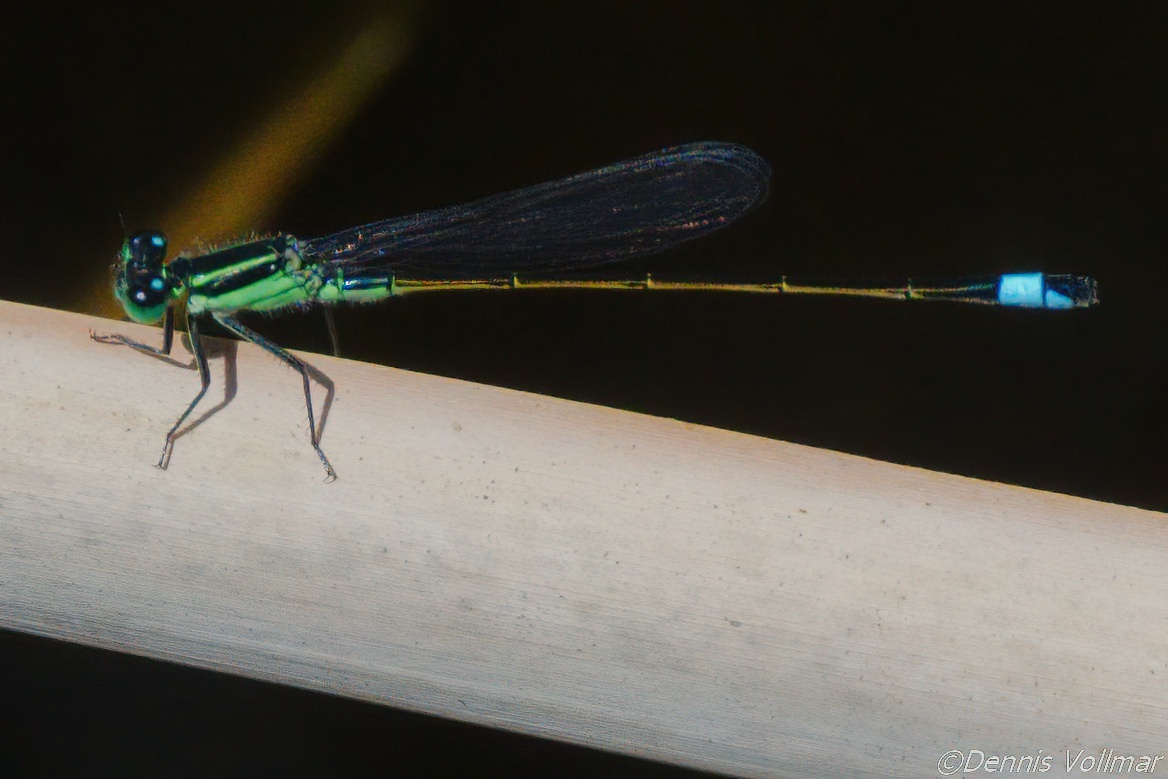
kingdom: Animalia
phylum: Arthropoda
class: Insecta
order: Odonata
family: Coenagrionidae
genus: Ischnura
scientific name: Ischnura ramburii
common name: Rambur's forktail
